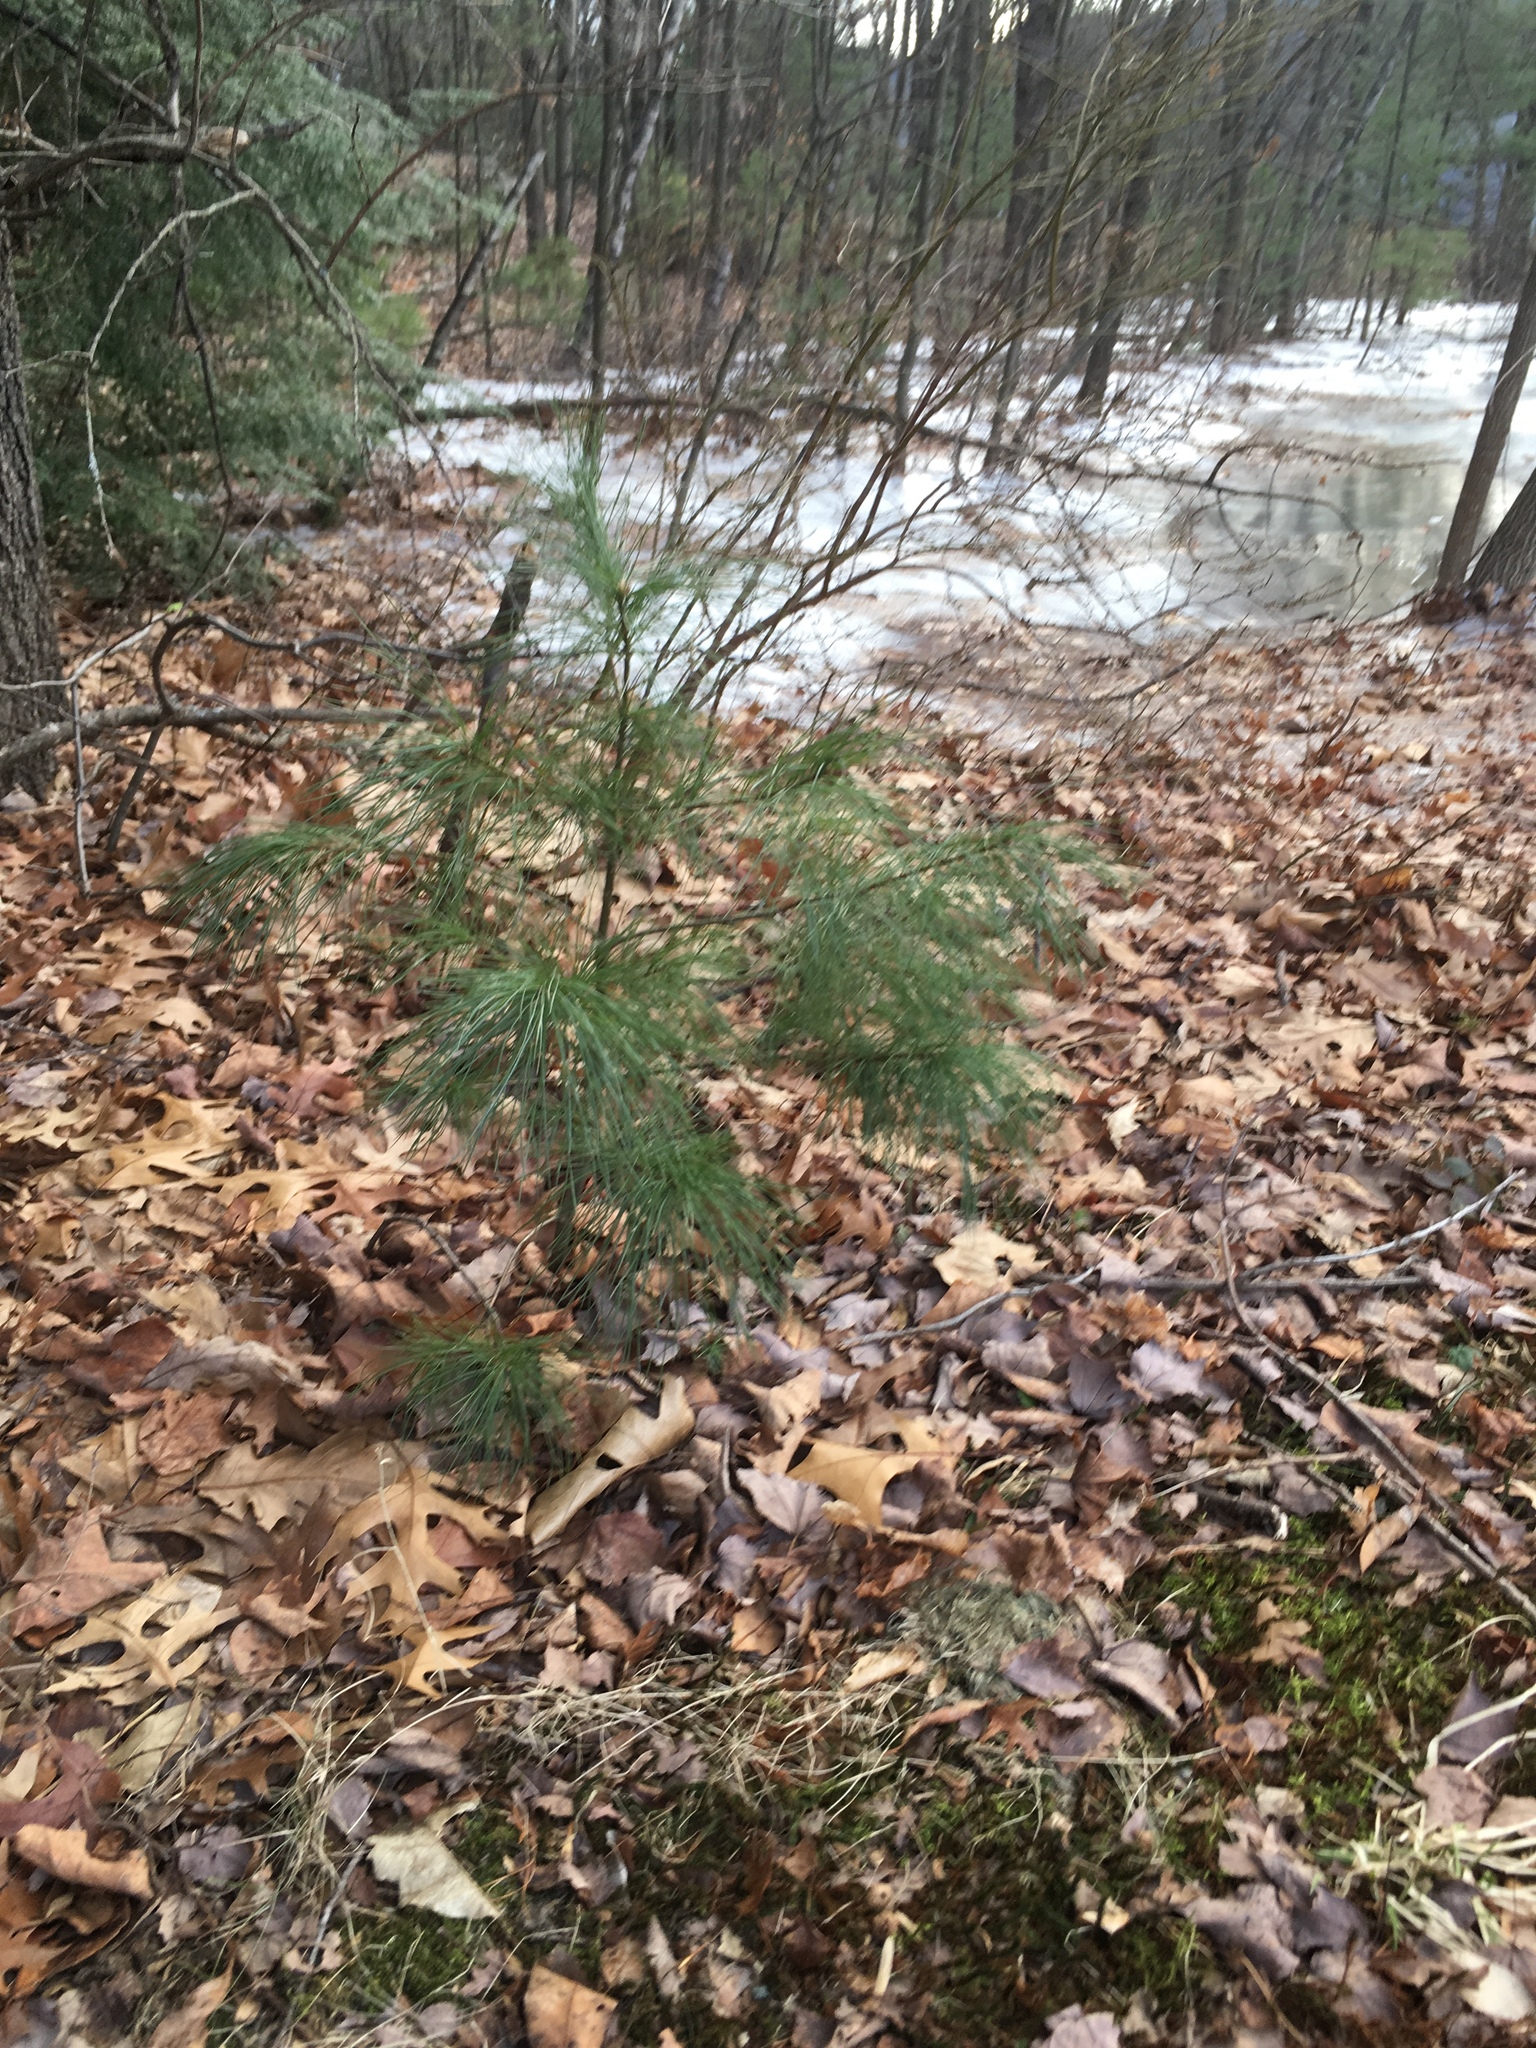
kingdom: Plantae
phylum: Tracheophyta
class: Pinopsida
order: Pinales
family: Pinaceae
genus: Pinus
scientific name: Pinus strobus
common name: Weymouth pine
